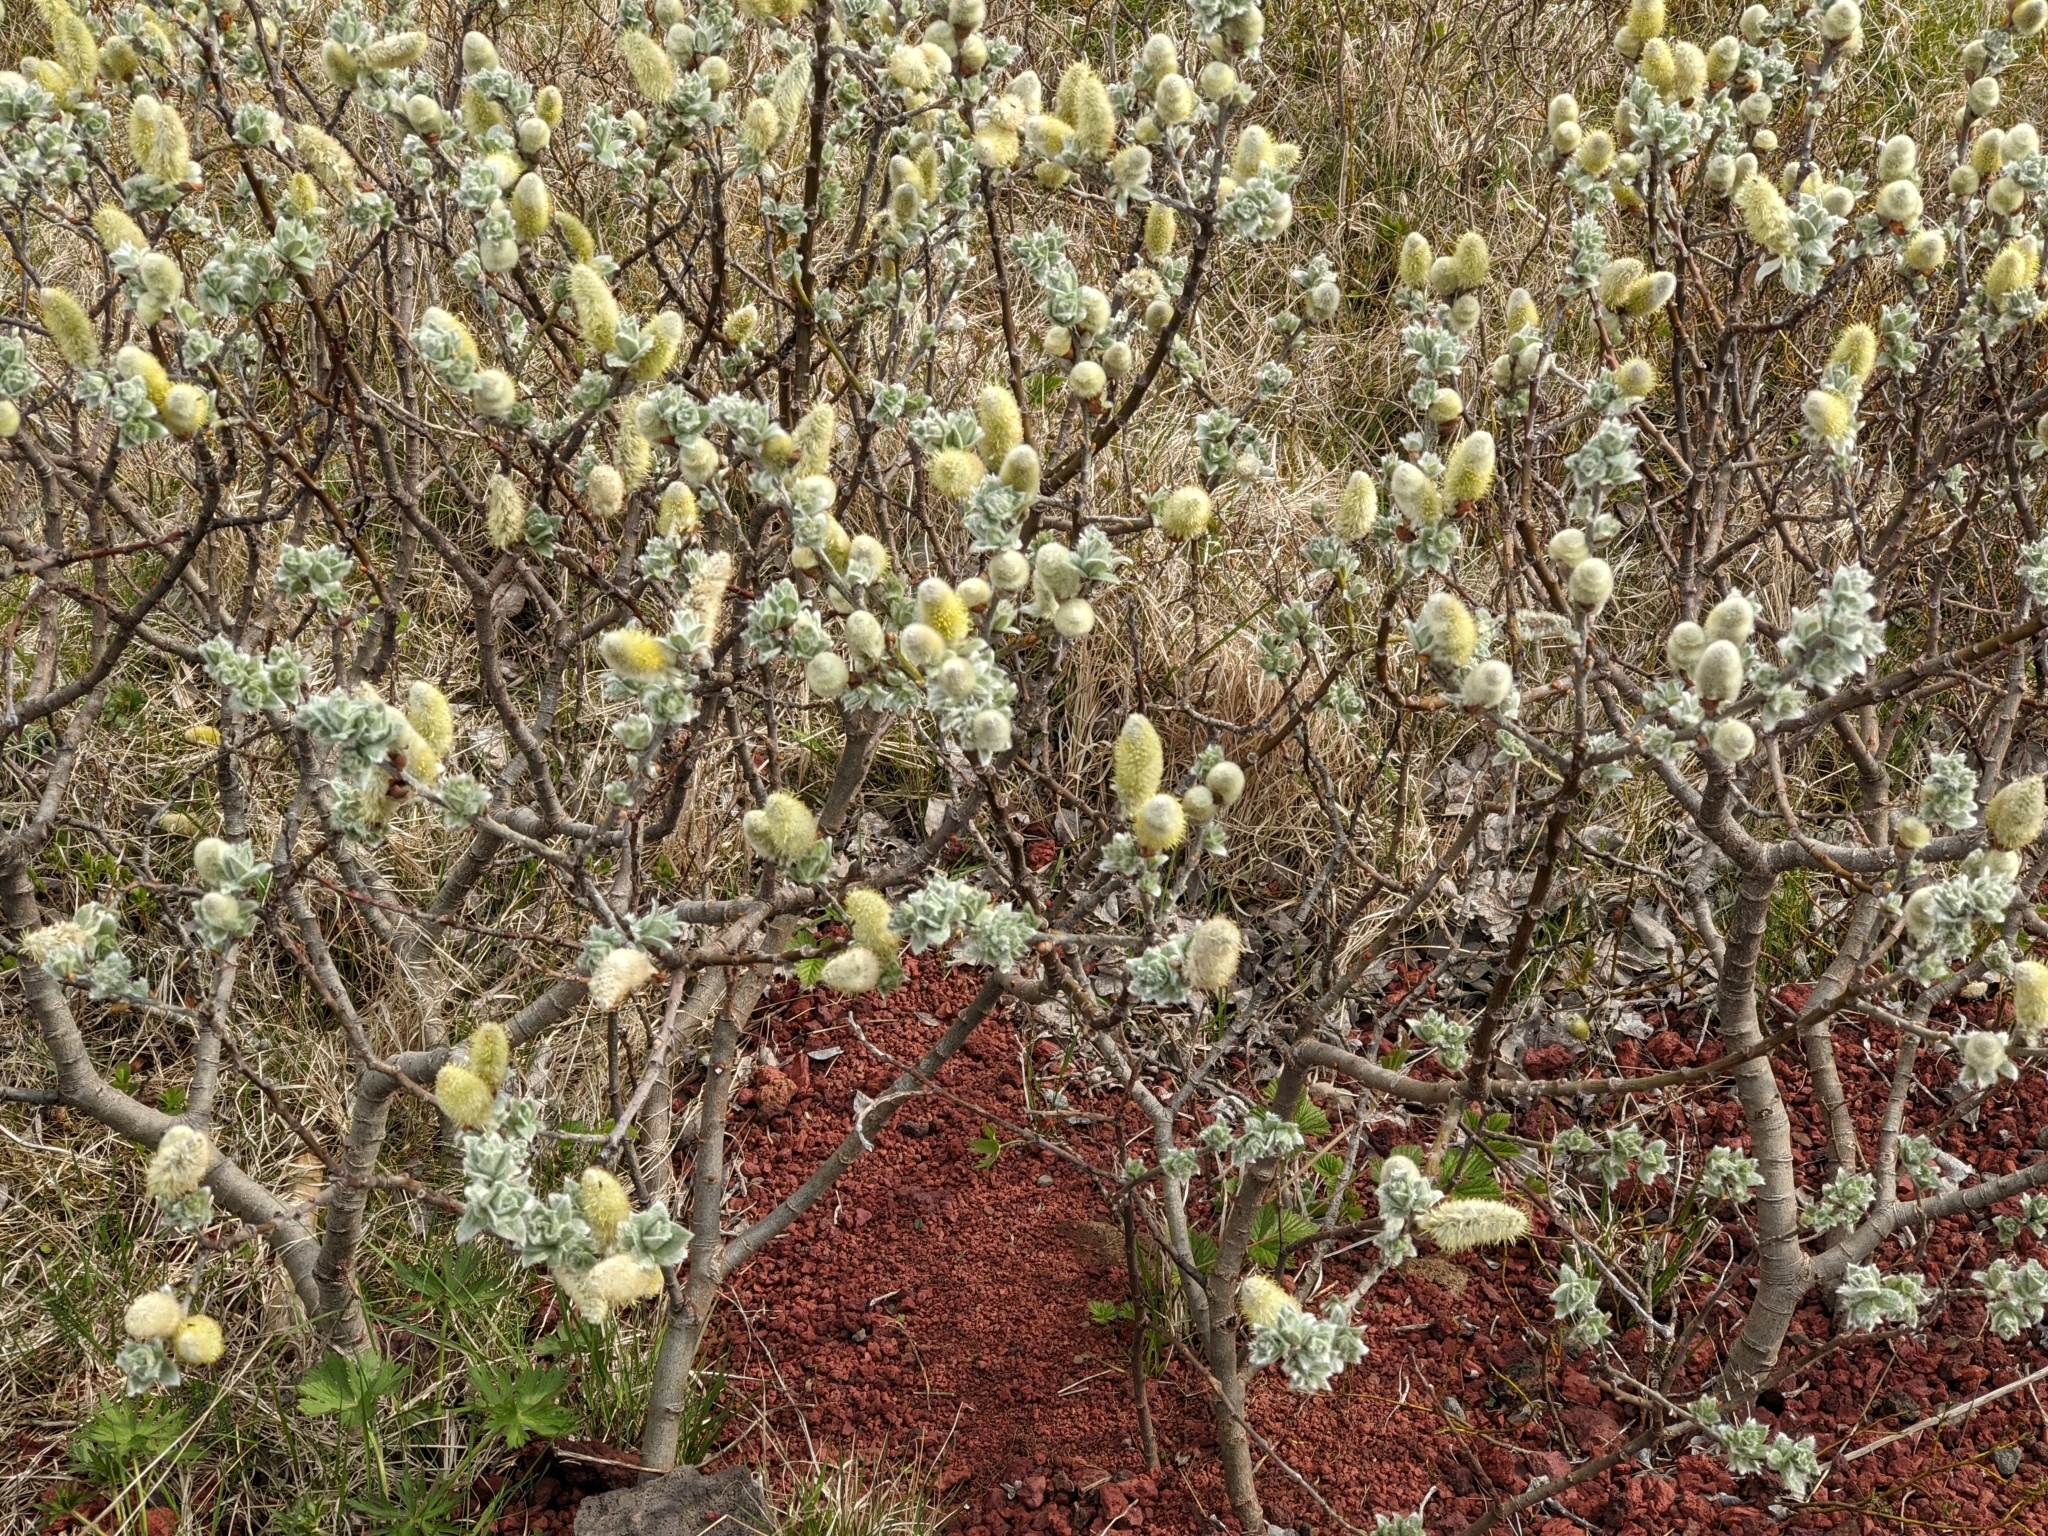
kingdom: Plantae
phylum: Tracheophyta
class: Magnoliopsida
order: Malpighiales
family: Salicaceae
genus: Salix
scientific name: Salix lanata
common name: Woolly willow
